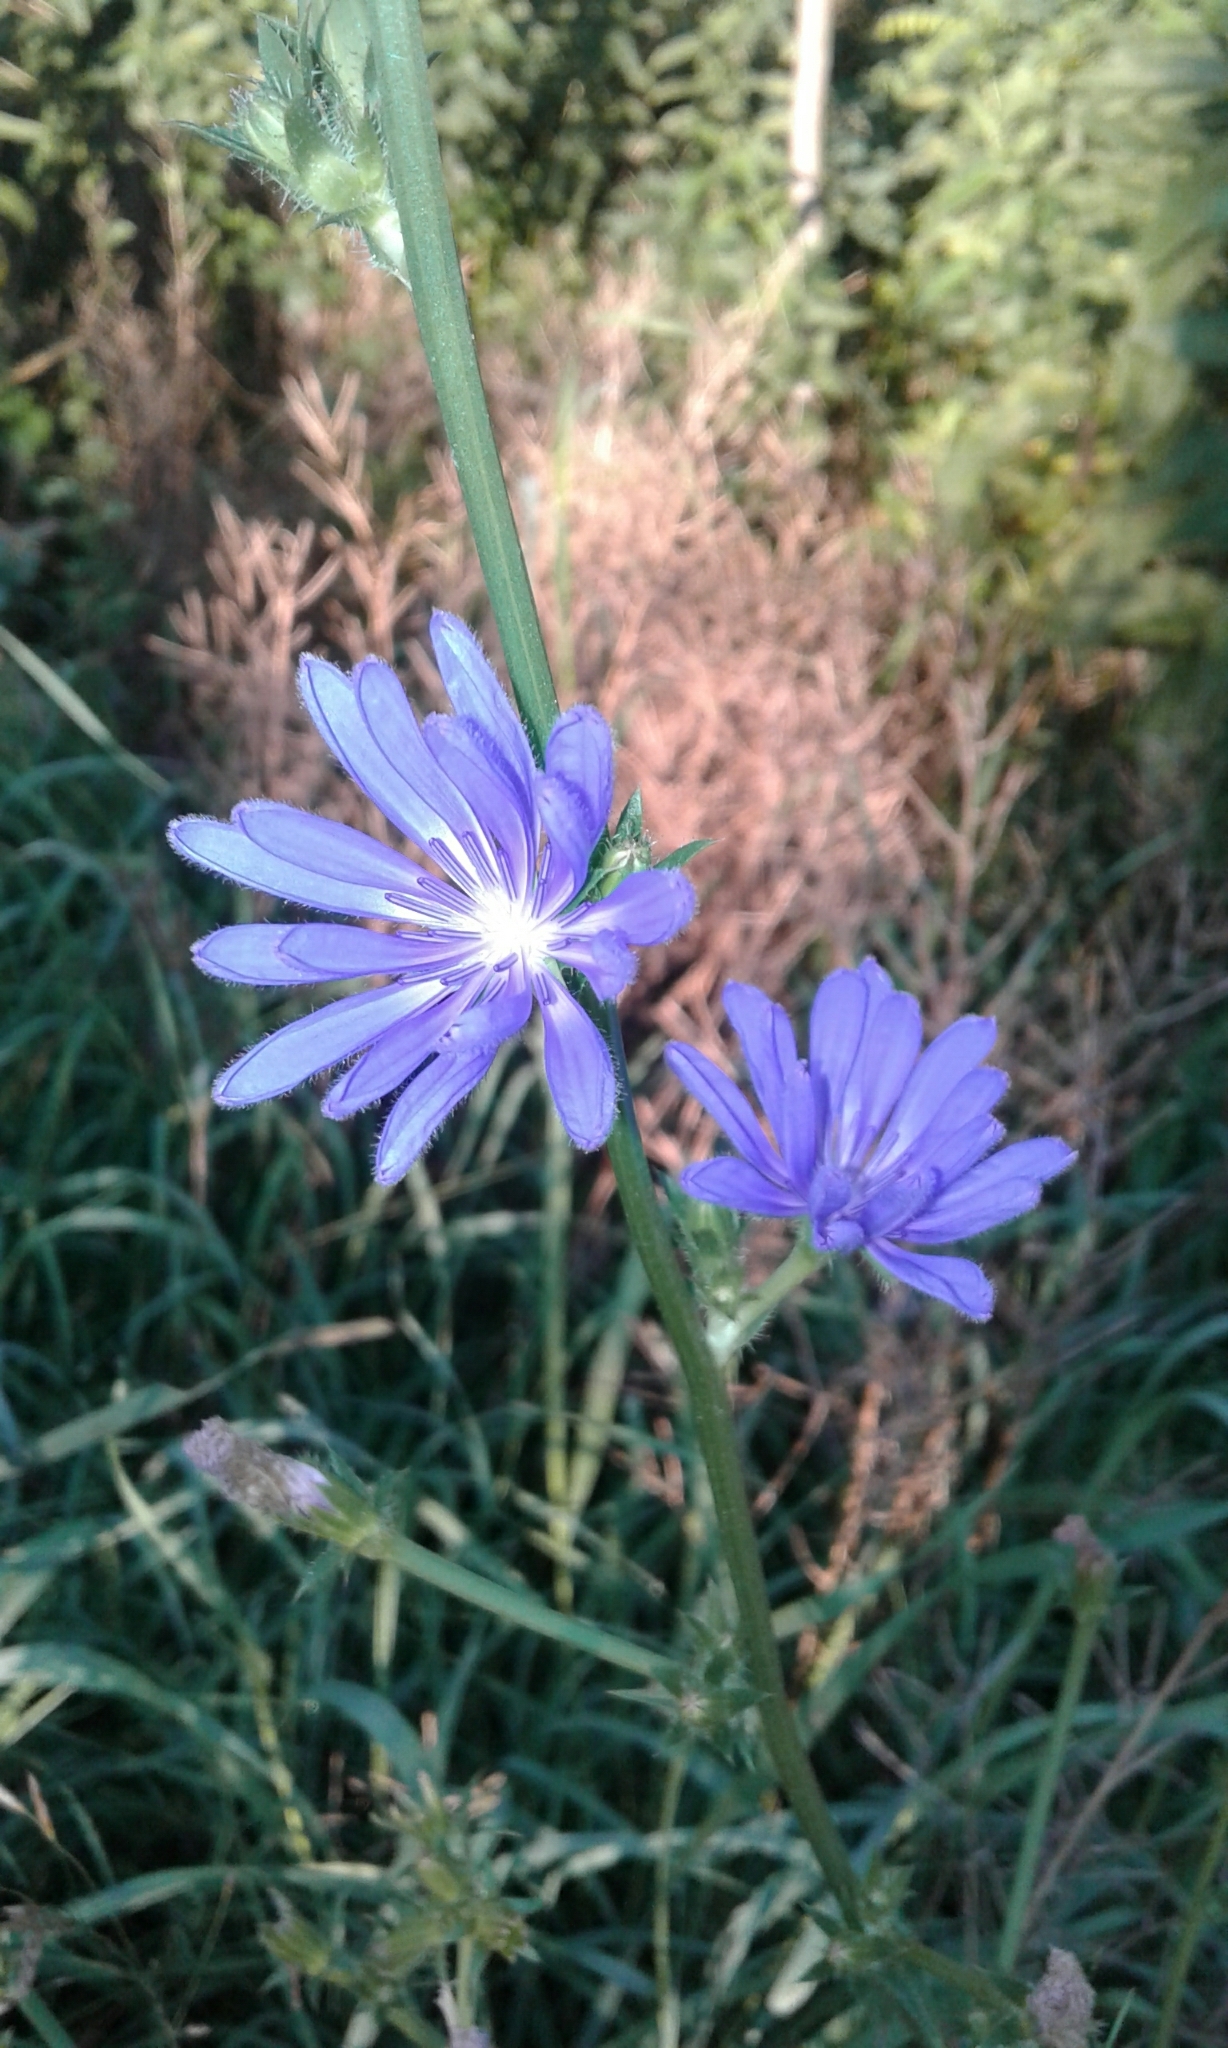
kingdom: Plantae
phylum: Tracheophyta
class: Magnoliopsida
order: Asterales
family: Asteraceae
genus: Cichorium
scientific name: Cichorium intybus
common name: Chicory
